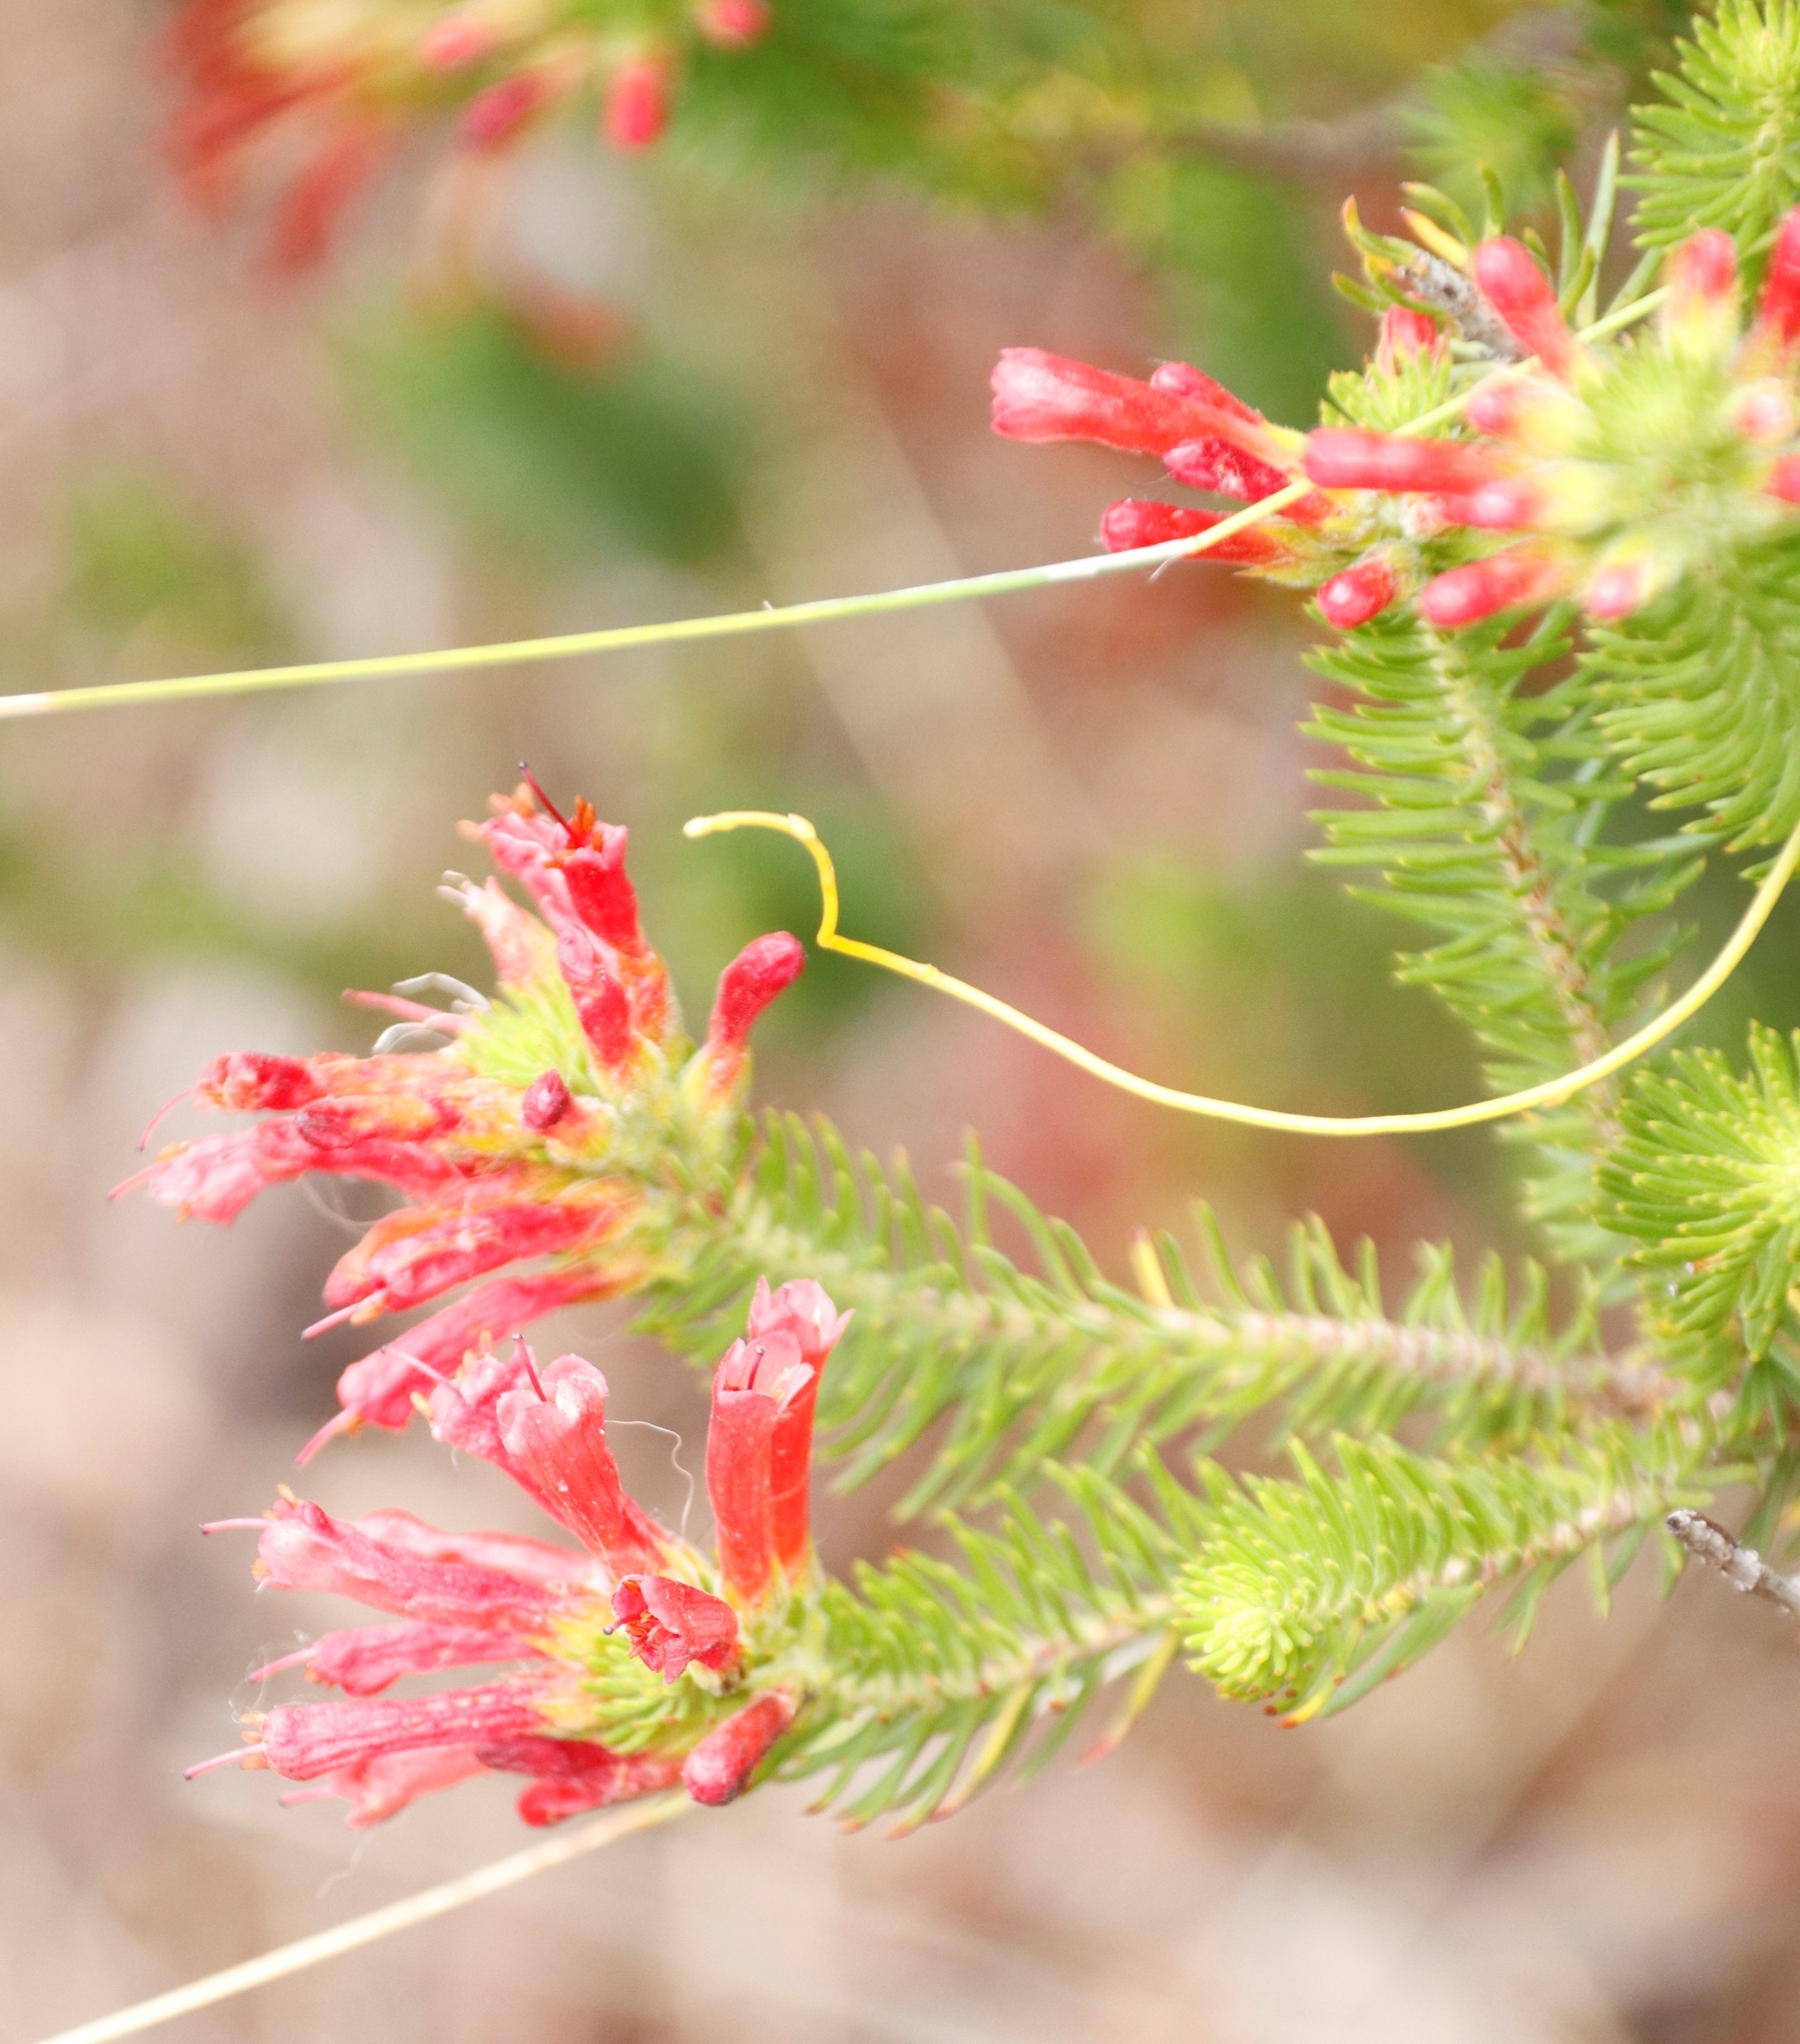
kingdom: Plantae
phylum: Tracheophyta
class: Magnoliopsida
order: Ericales
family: Ericaceae
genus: Erica
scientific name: Erica abietina
